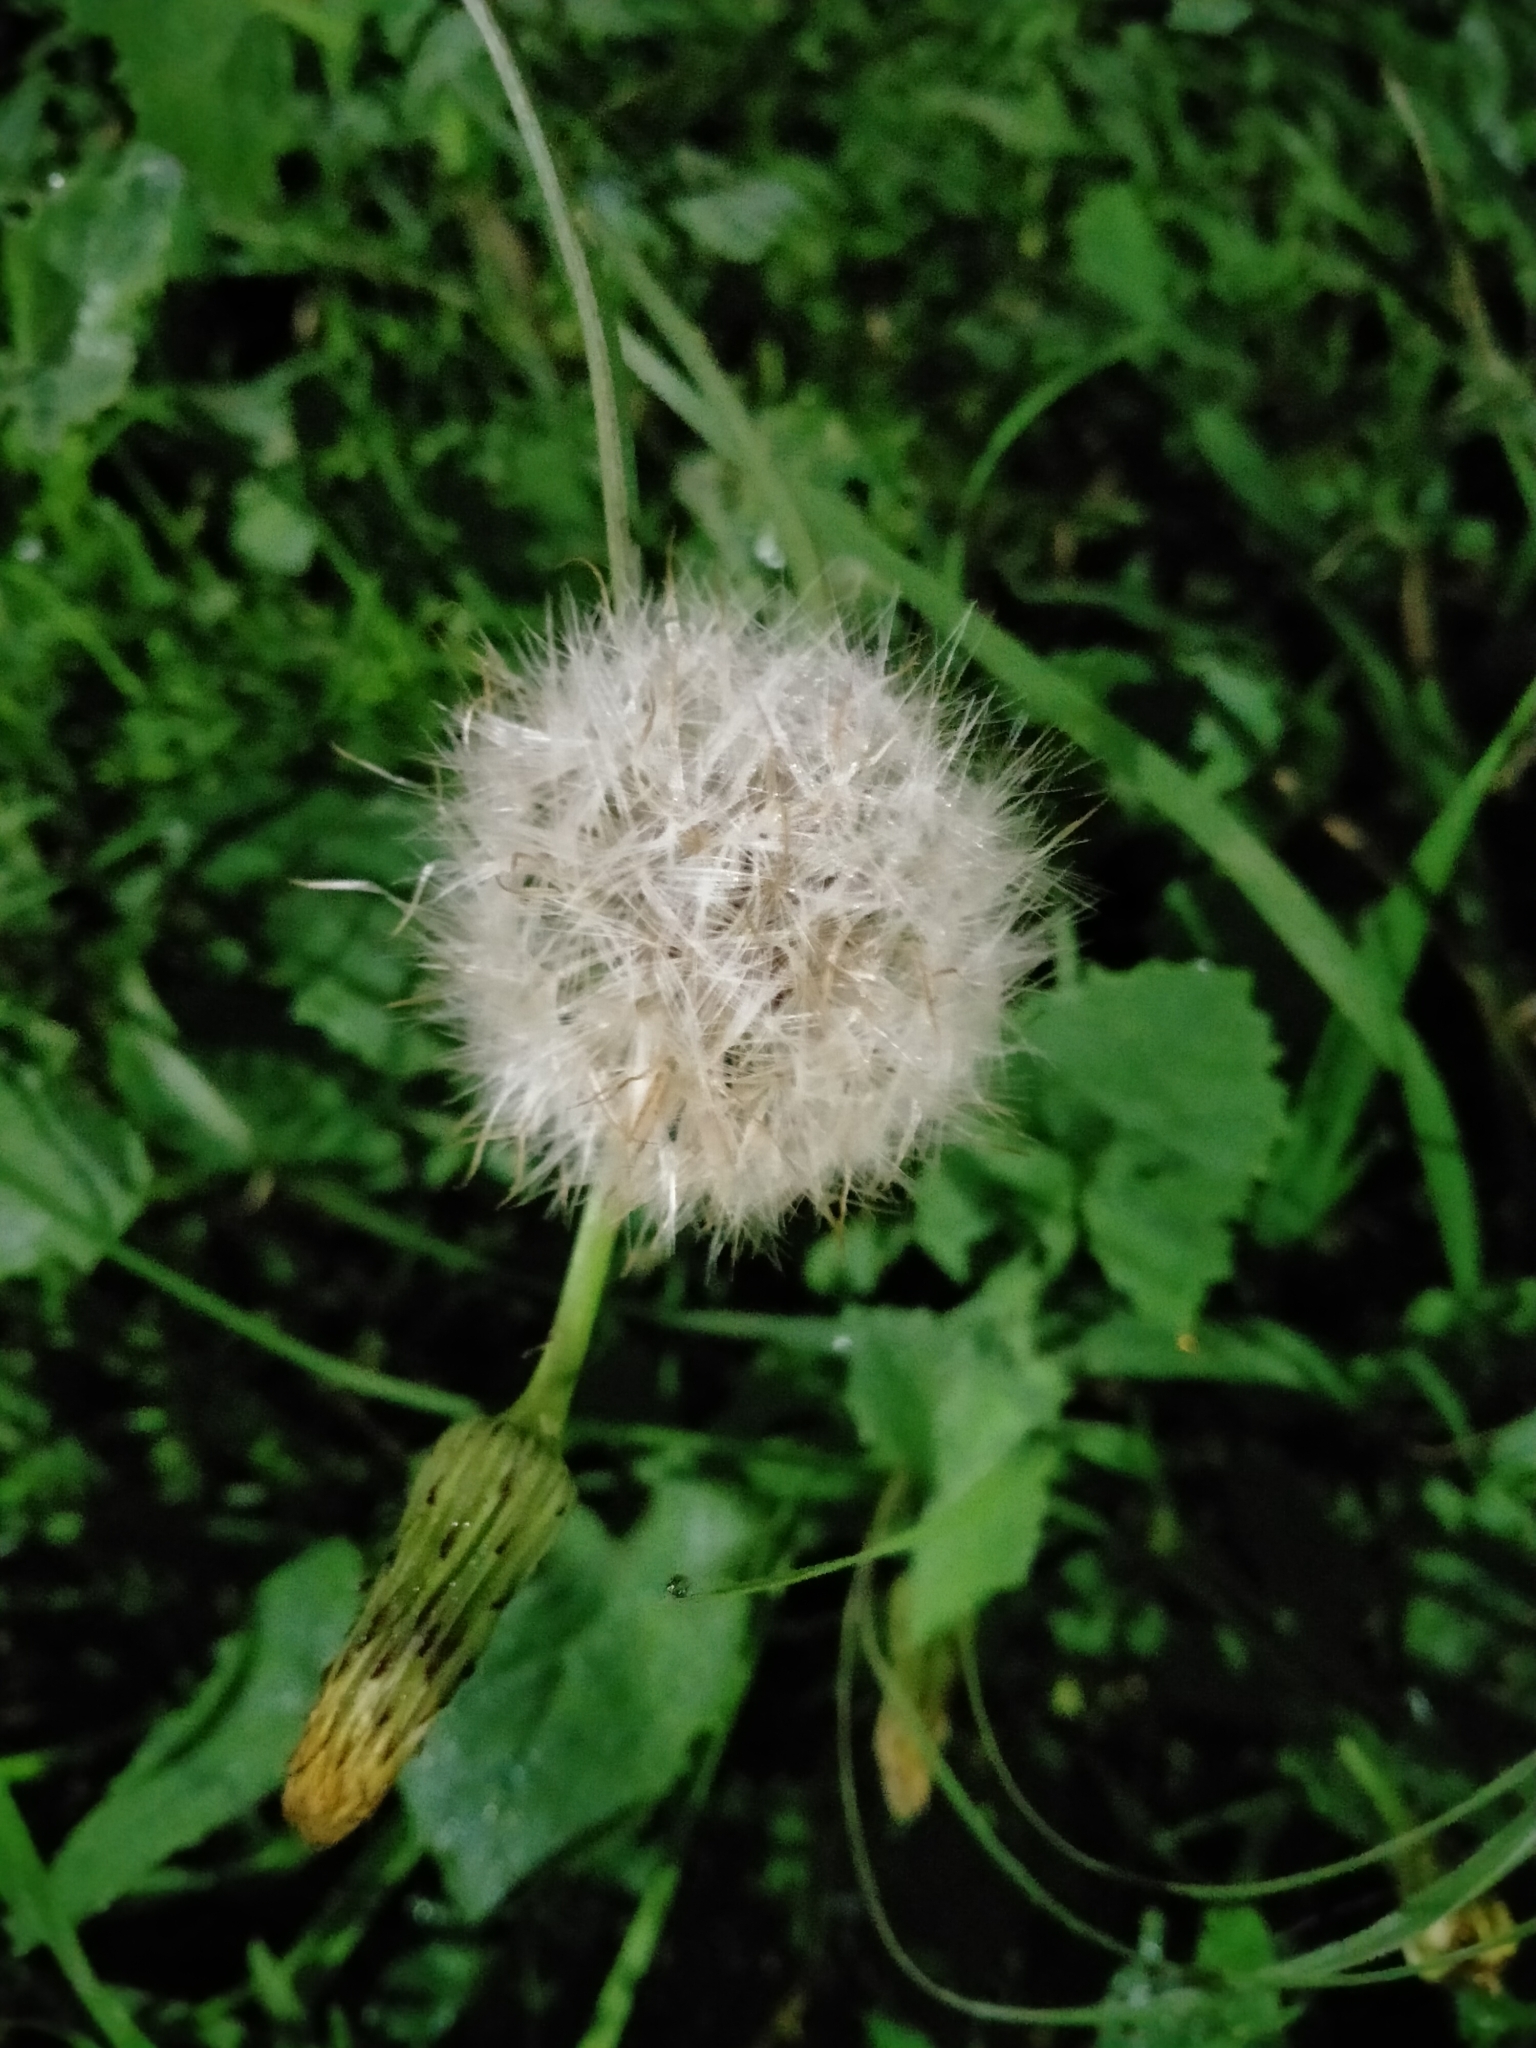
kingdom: Plantae
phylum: Tracheophyta
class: Magnoliopsida
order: Asterales
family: Asteraceae
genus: Sonchus
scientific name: Sonchus oleraceus
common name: Common sowthistle
